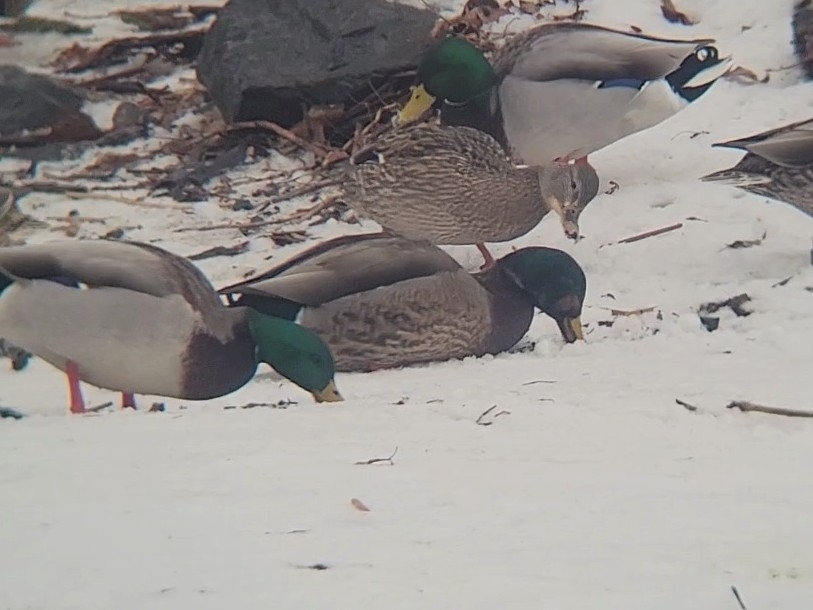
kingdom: Animalia
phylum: Chordata
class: Aves
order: Anseriformes
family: Anatidae
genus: Anas
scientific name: Anas
